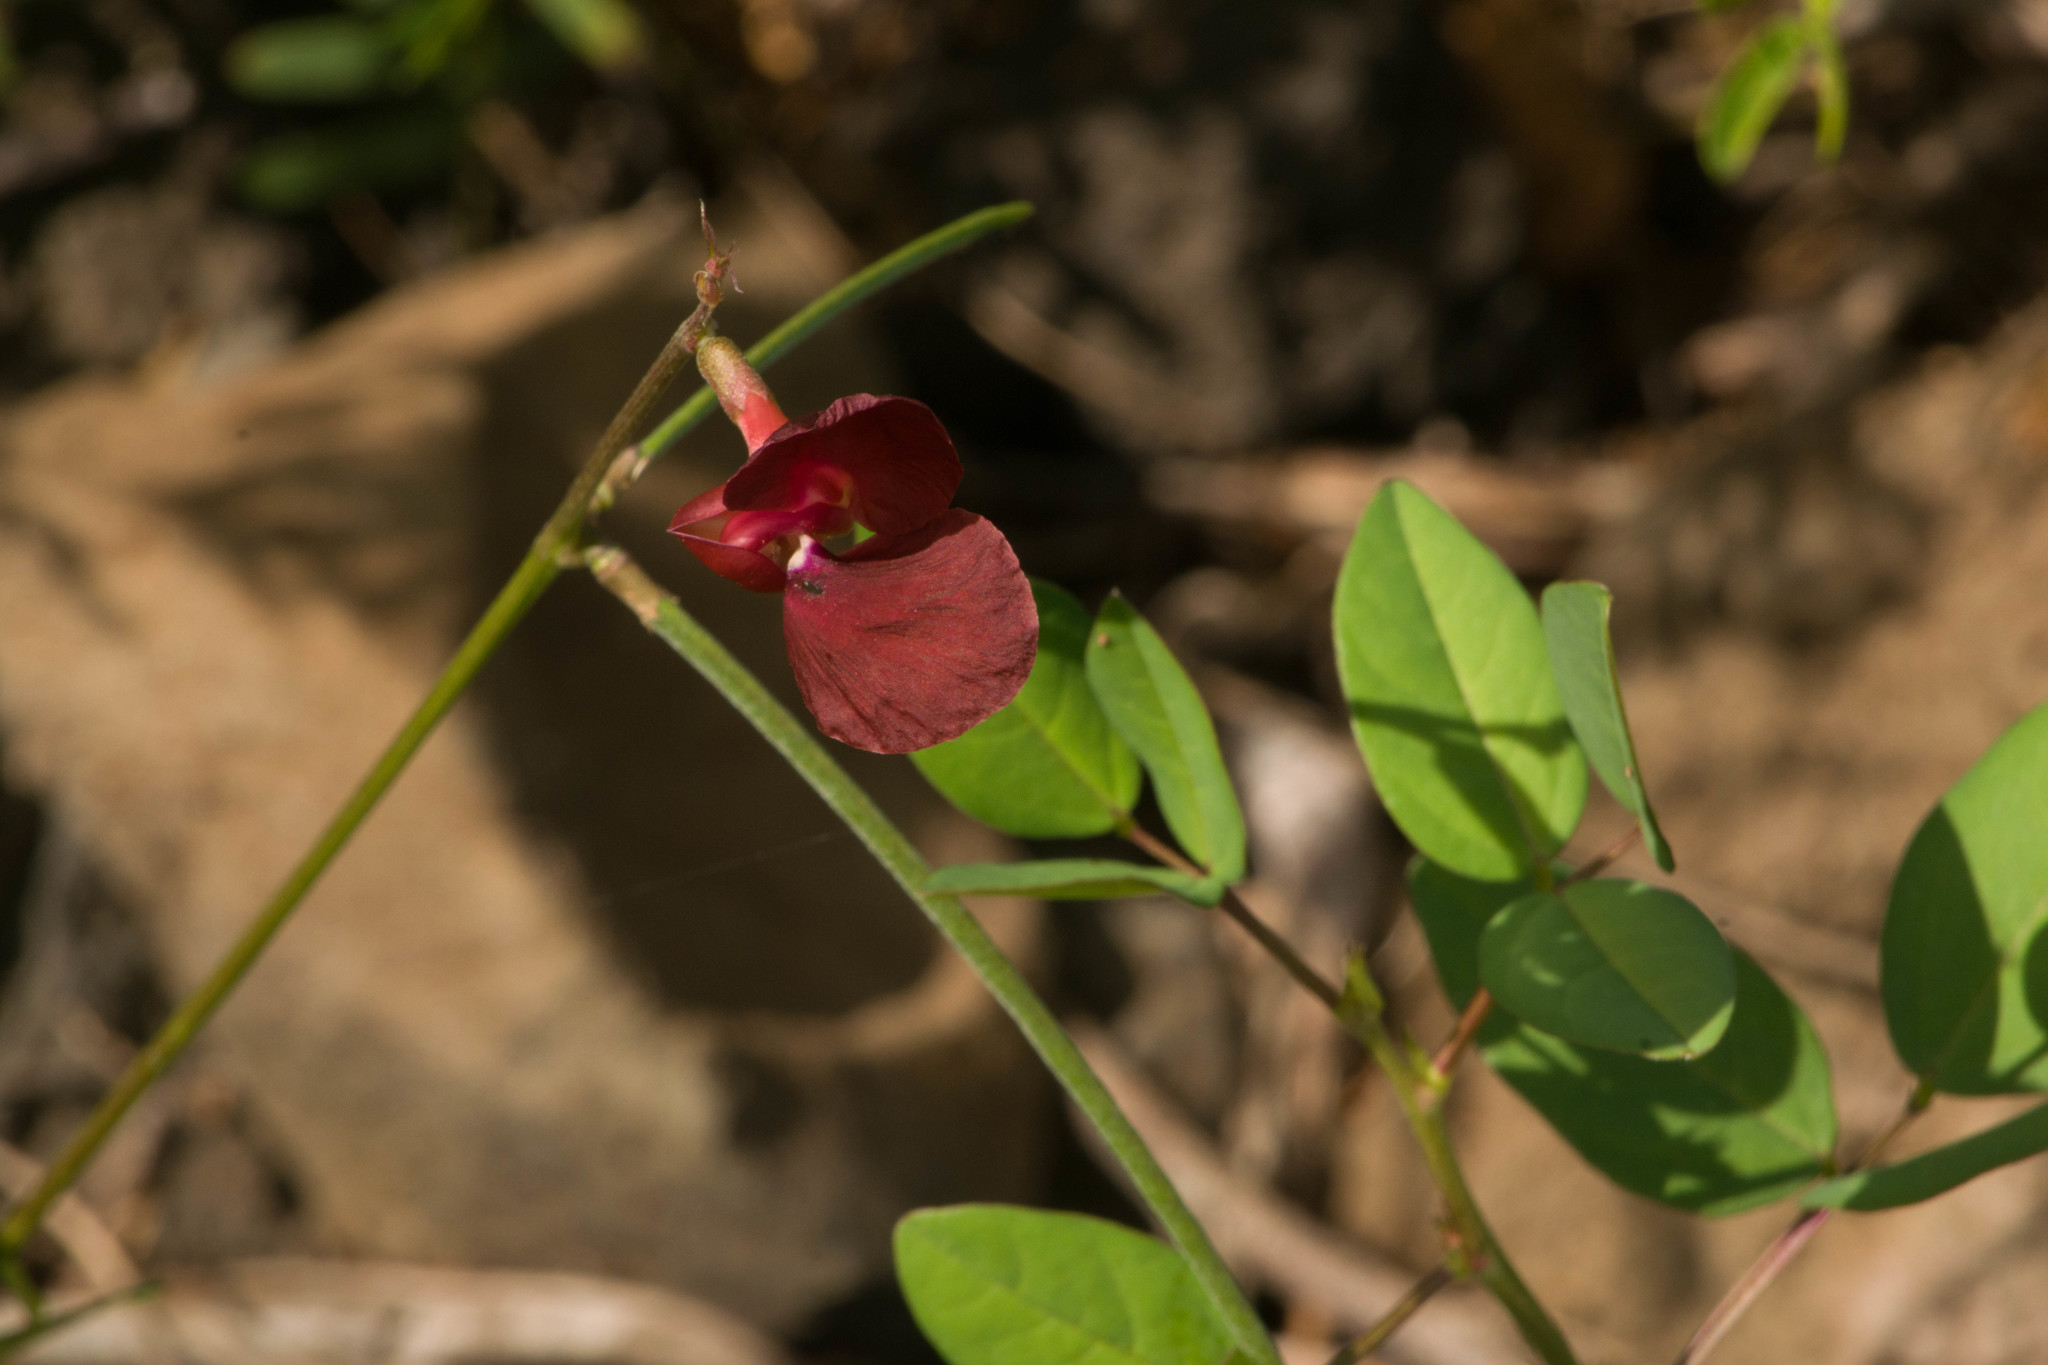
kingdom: Plantae
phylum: Tracheophyta
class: Magnoliopsida
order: Fabales
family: Fabaceae
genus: Macroptilium
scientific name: Macroptilium lathyroides
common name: Wild bushbean
